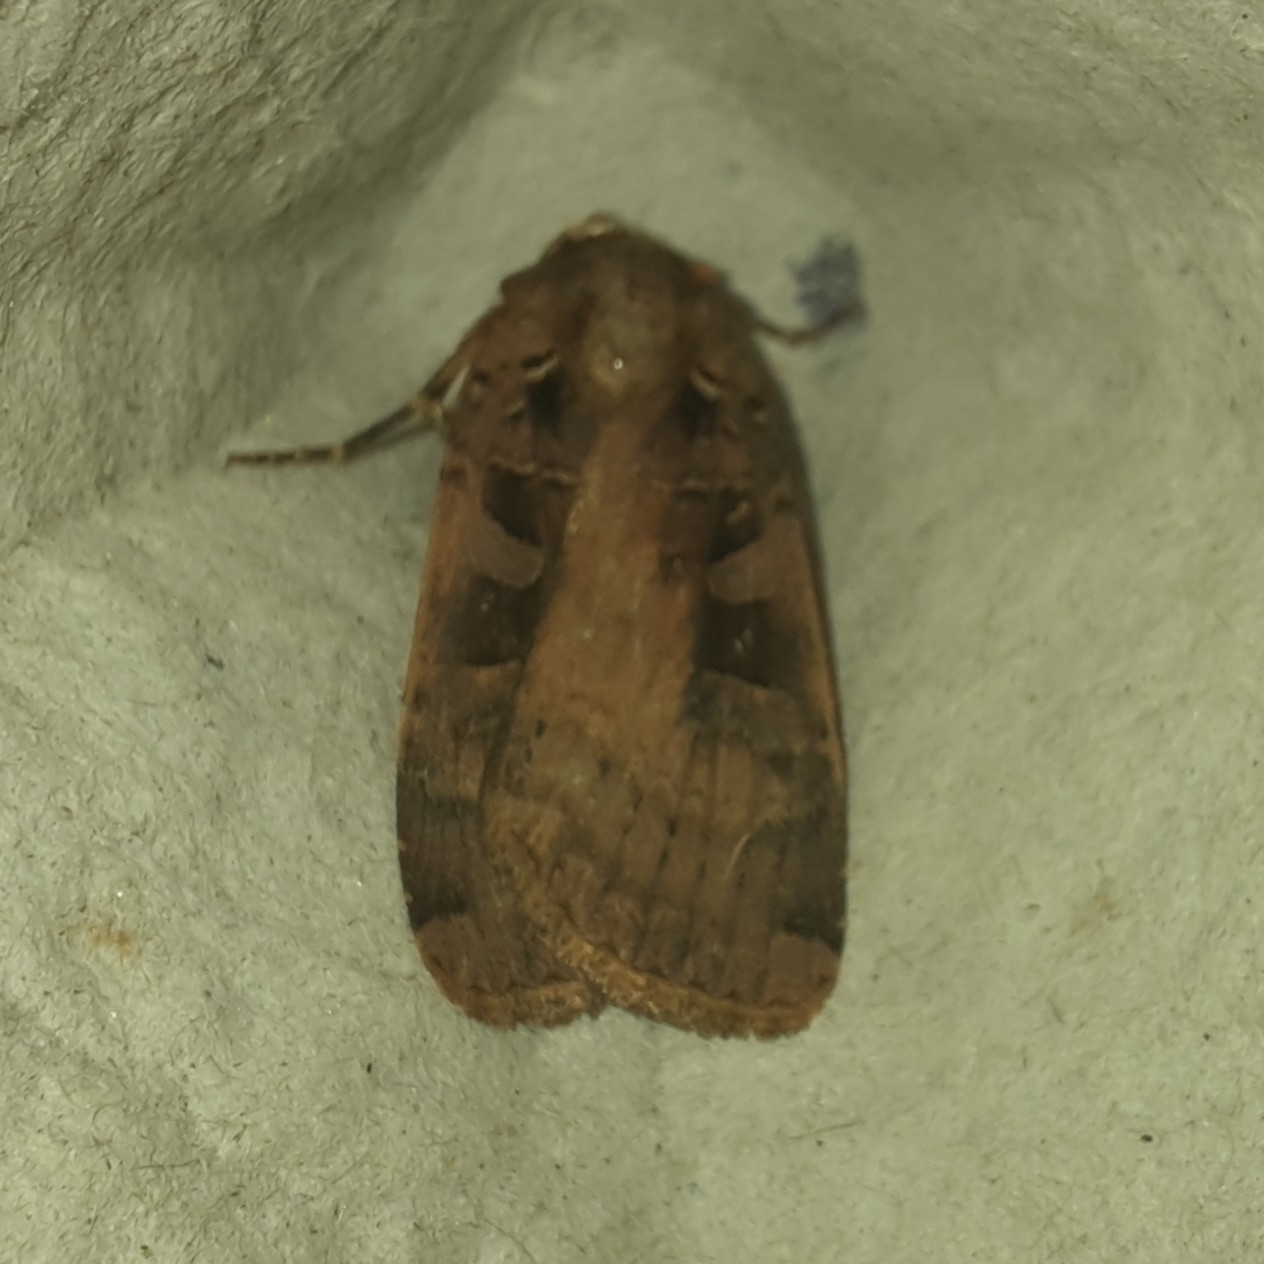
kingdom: Animalia
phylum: Arthropoda
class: Insecta
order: Lepidoptera
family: Noctuidae
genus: Xestia
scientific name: Xestia ditrapezium
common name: Triple-spotted clay
